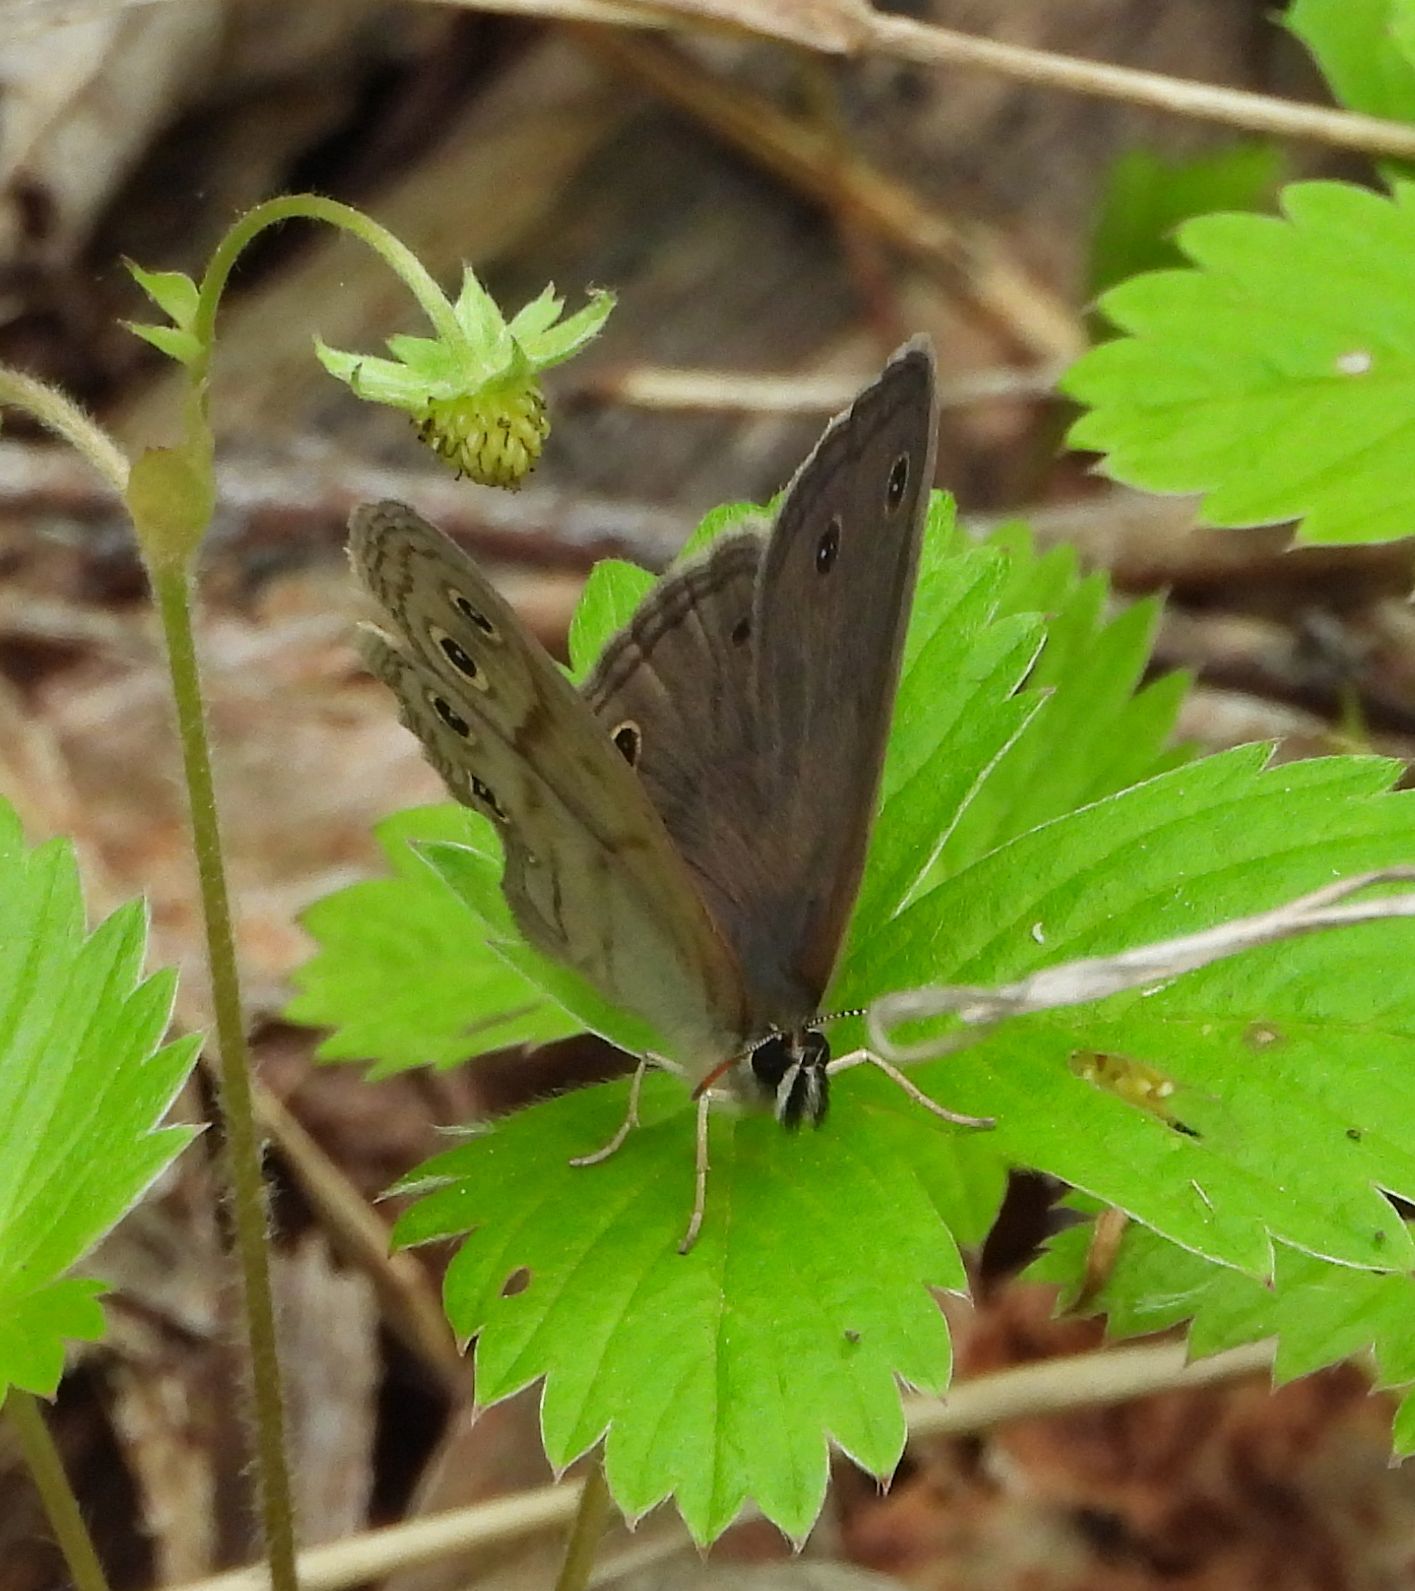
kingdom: Animalia
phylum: Arthropoda
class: Insecta
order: Lepidoptera
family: Nymphalidae
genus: Euptychia
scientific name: Euptychia cymela
